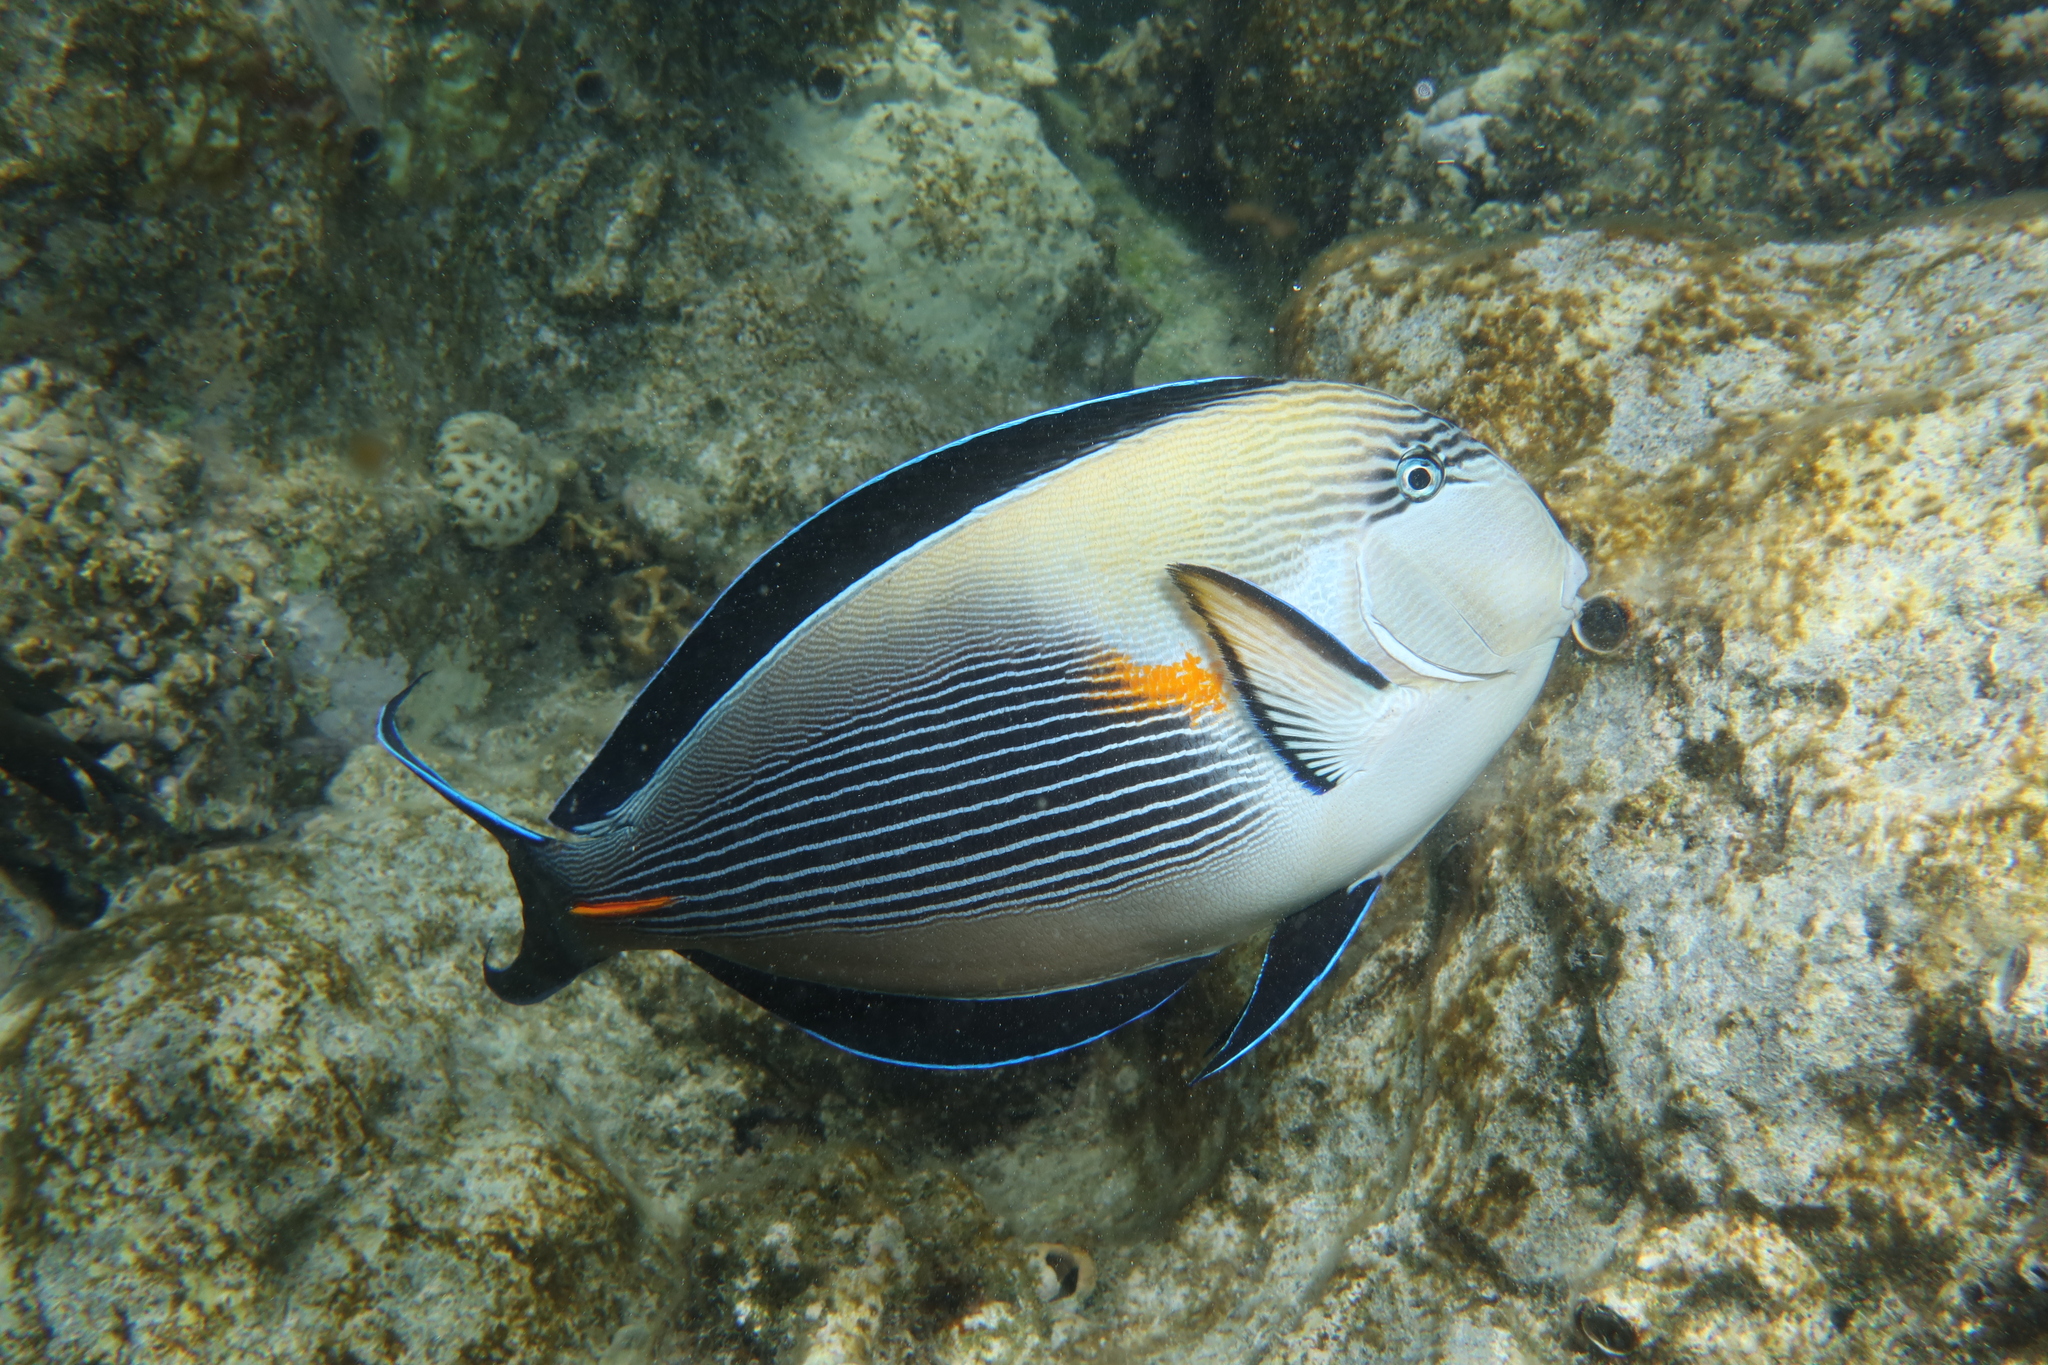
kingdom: Animalia
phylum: Chordata
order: Perciformes
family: Acanthuridae
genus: Acanthurus
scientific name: Acanthurus sohal
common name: Red sea surgeonfish
